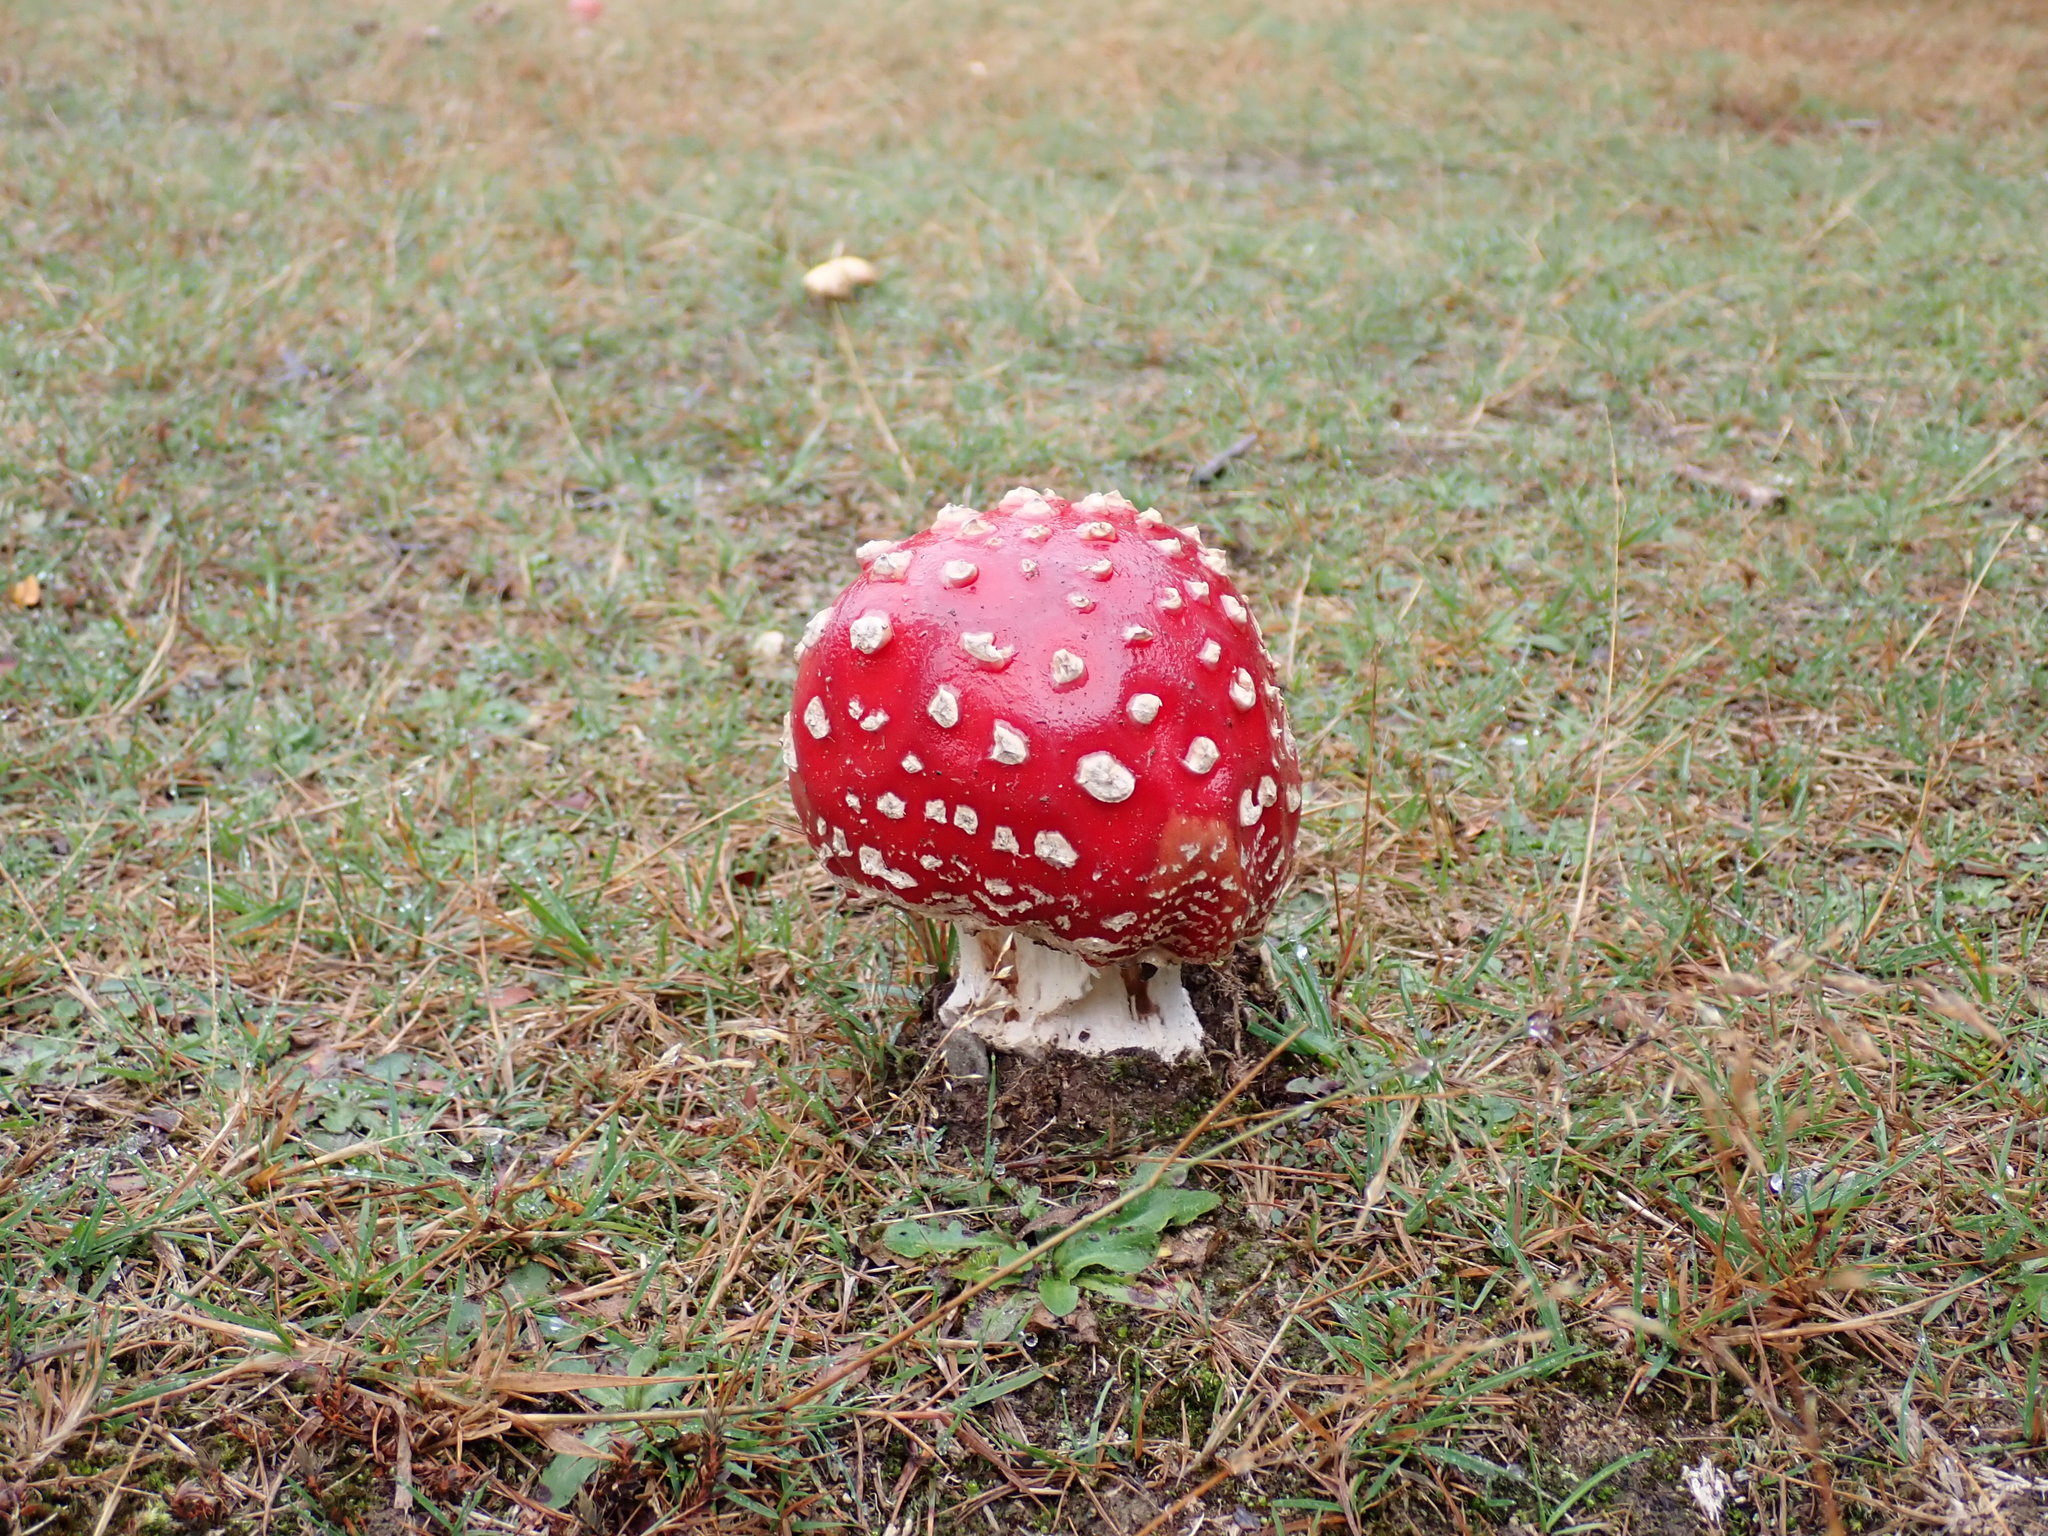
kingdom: Fungi
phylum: Basidiomycota
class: Agaricomycetes
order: Agaricales
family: Amanitaceae
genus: Amanita
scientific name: Amanita muscaria
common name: Fly agaric
